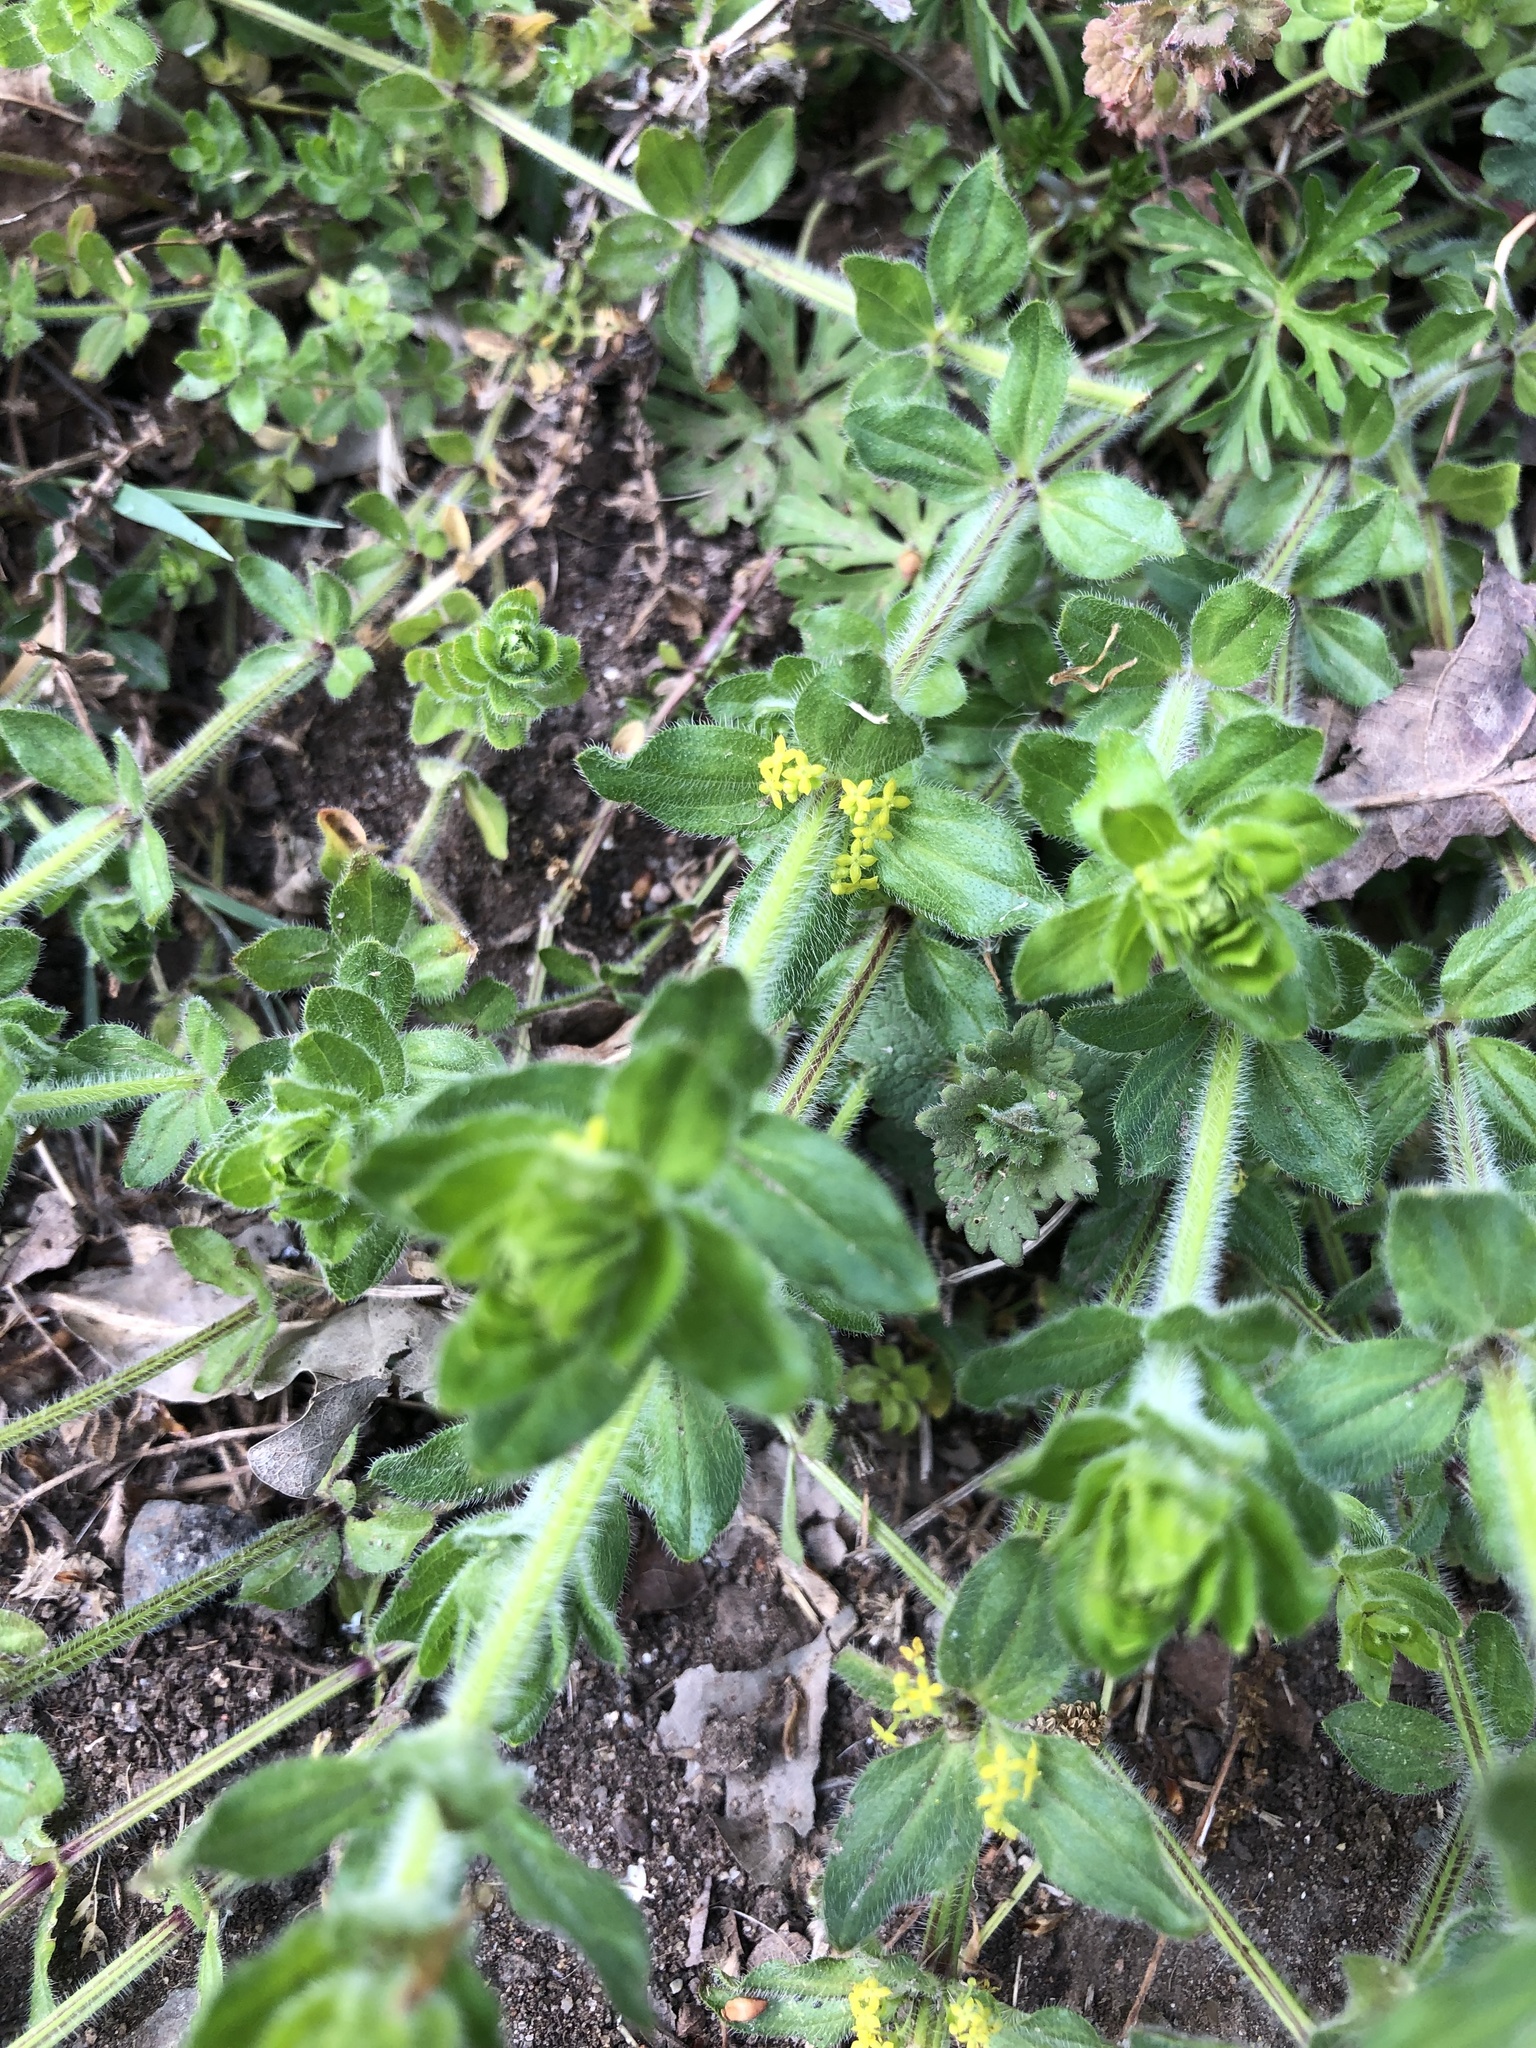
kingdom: Plantae
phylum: Tracheophyta
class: Magnoliopsida
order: Gentianales
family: Rubiaceae
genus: Cruciata
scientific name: Cruciata laevipes
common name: Crosswort
